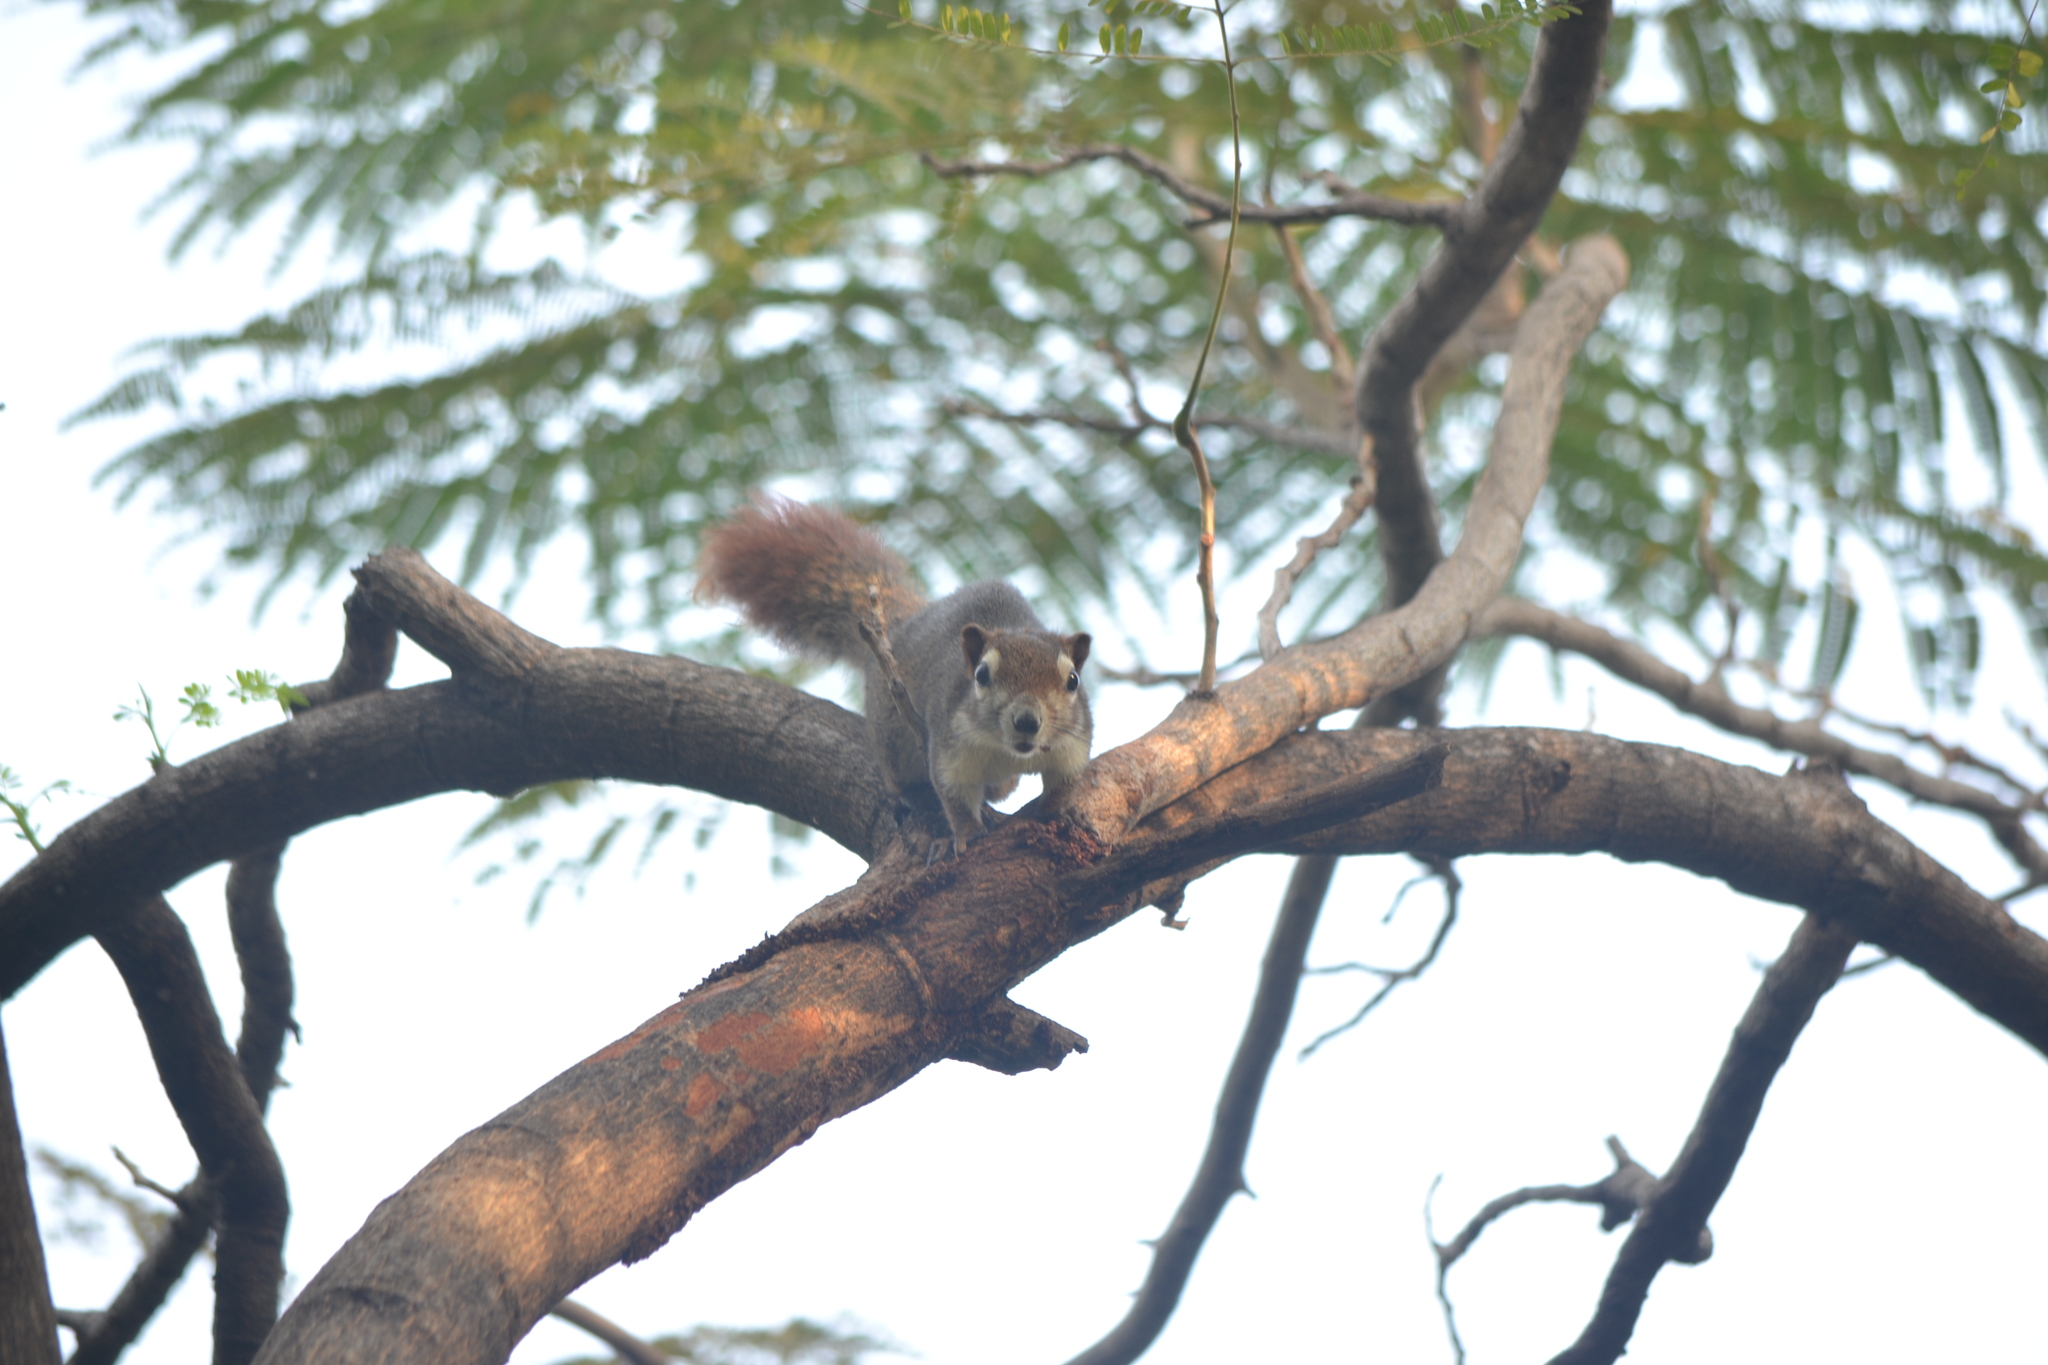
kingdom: Animalia
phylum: Chordata
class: Mammalia
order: Rodentia
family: Sciuridae
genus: Callosciurus
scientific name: Callosciurus finlaysonii
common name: Finlayson's squirrel
